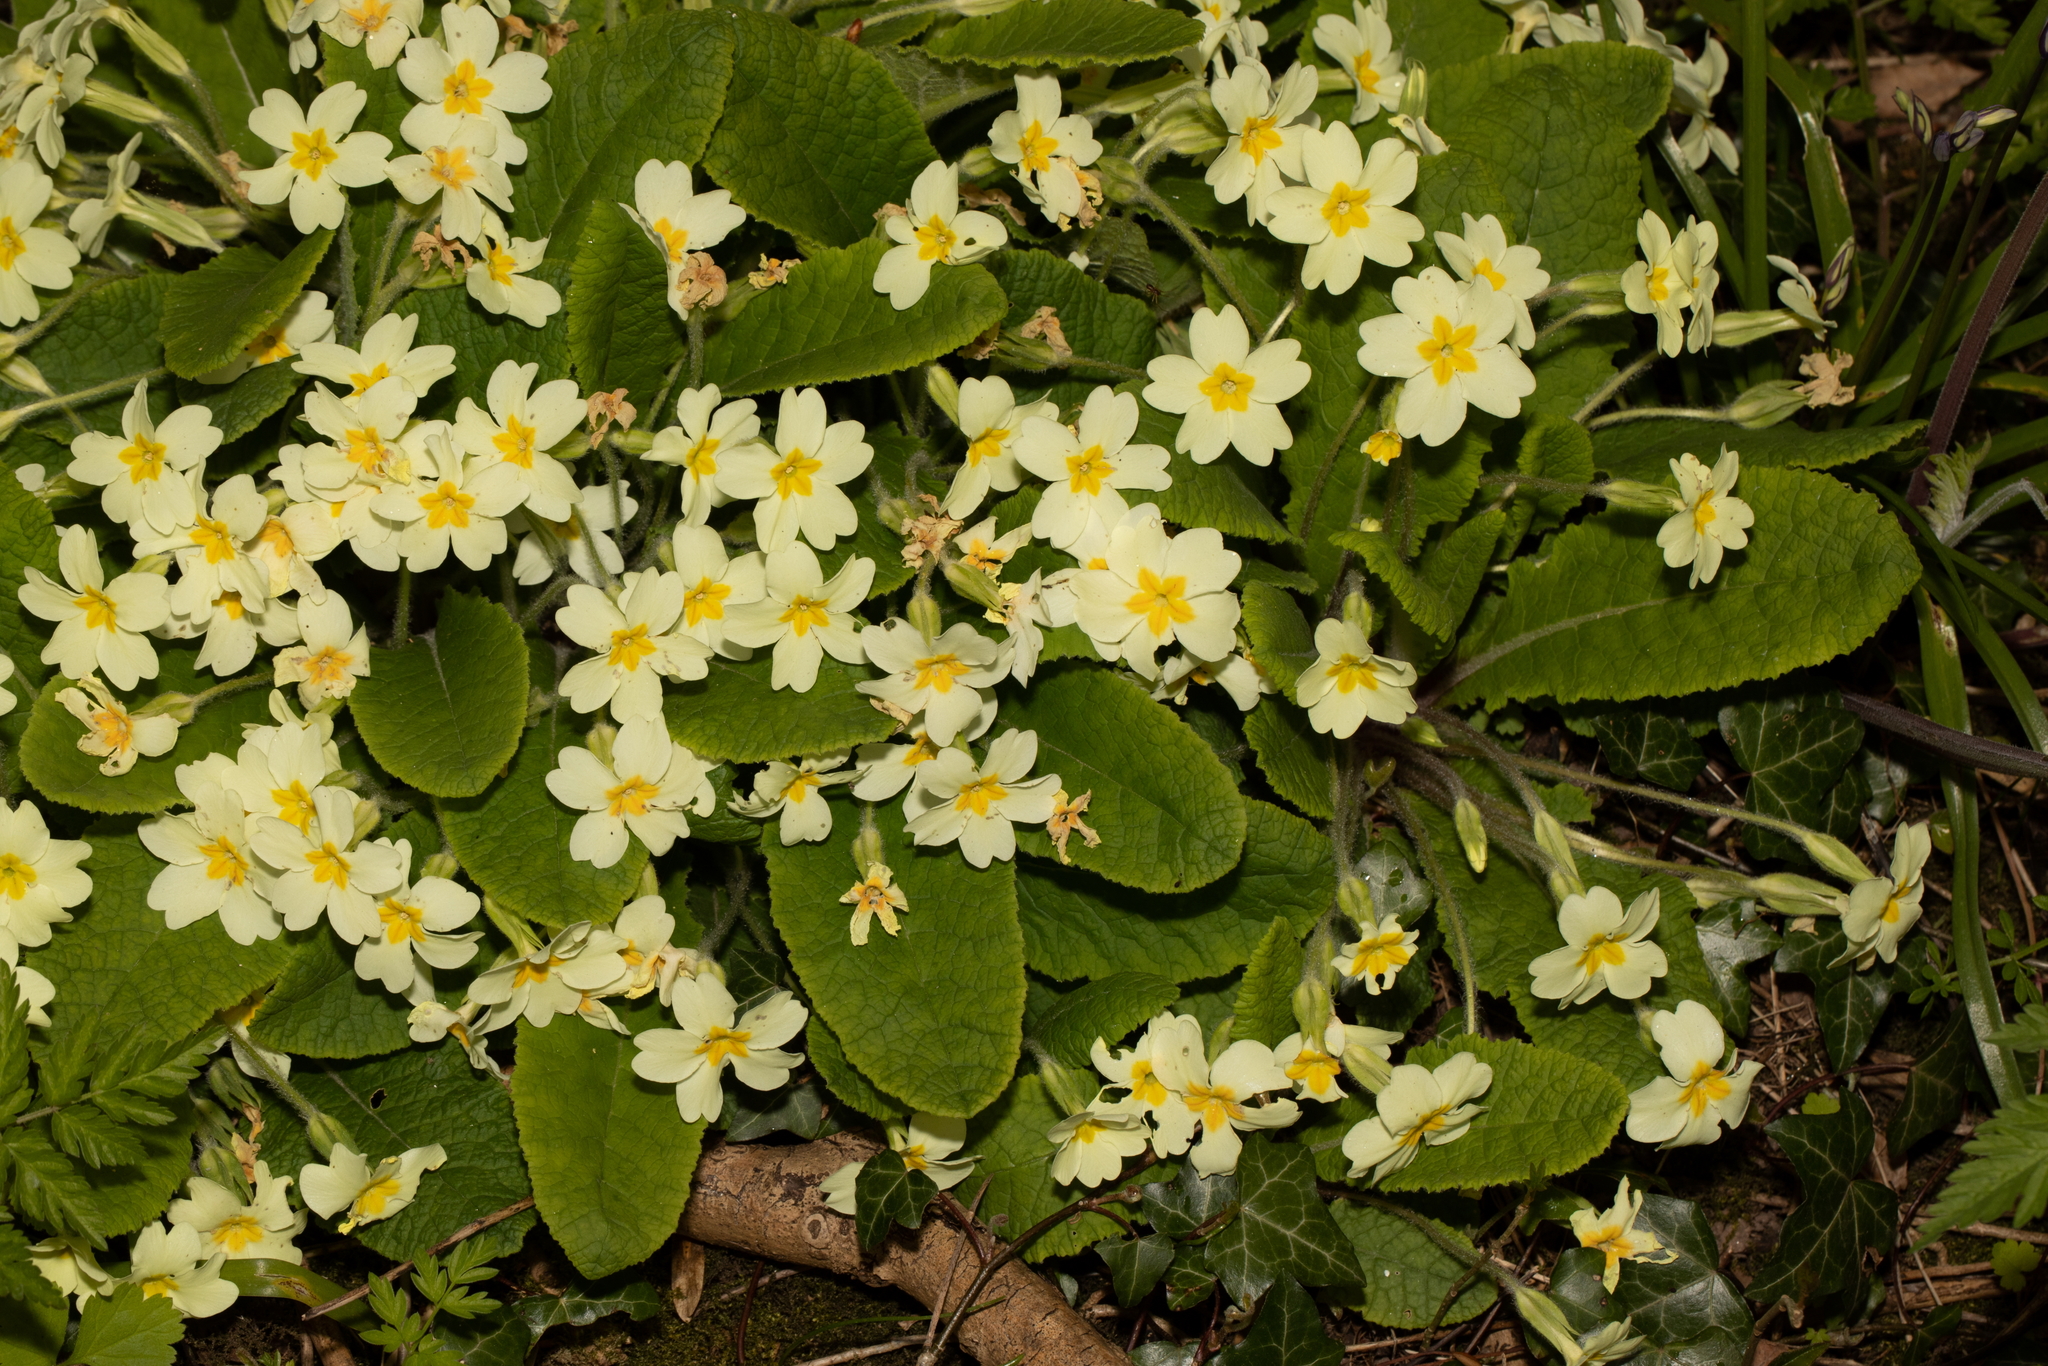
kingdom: Plantae
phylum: Tracheophyta
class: Magnoliopsida
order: Ericales
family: Primulaceae
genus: Primula
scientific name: Primula vulgaris
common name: Primrose
